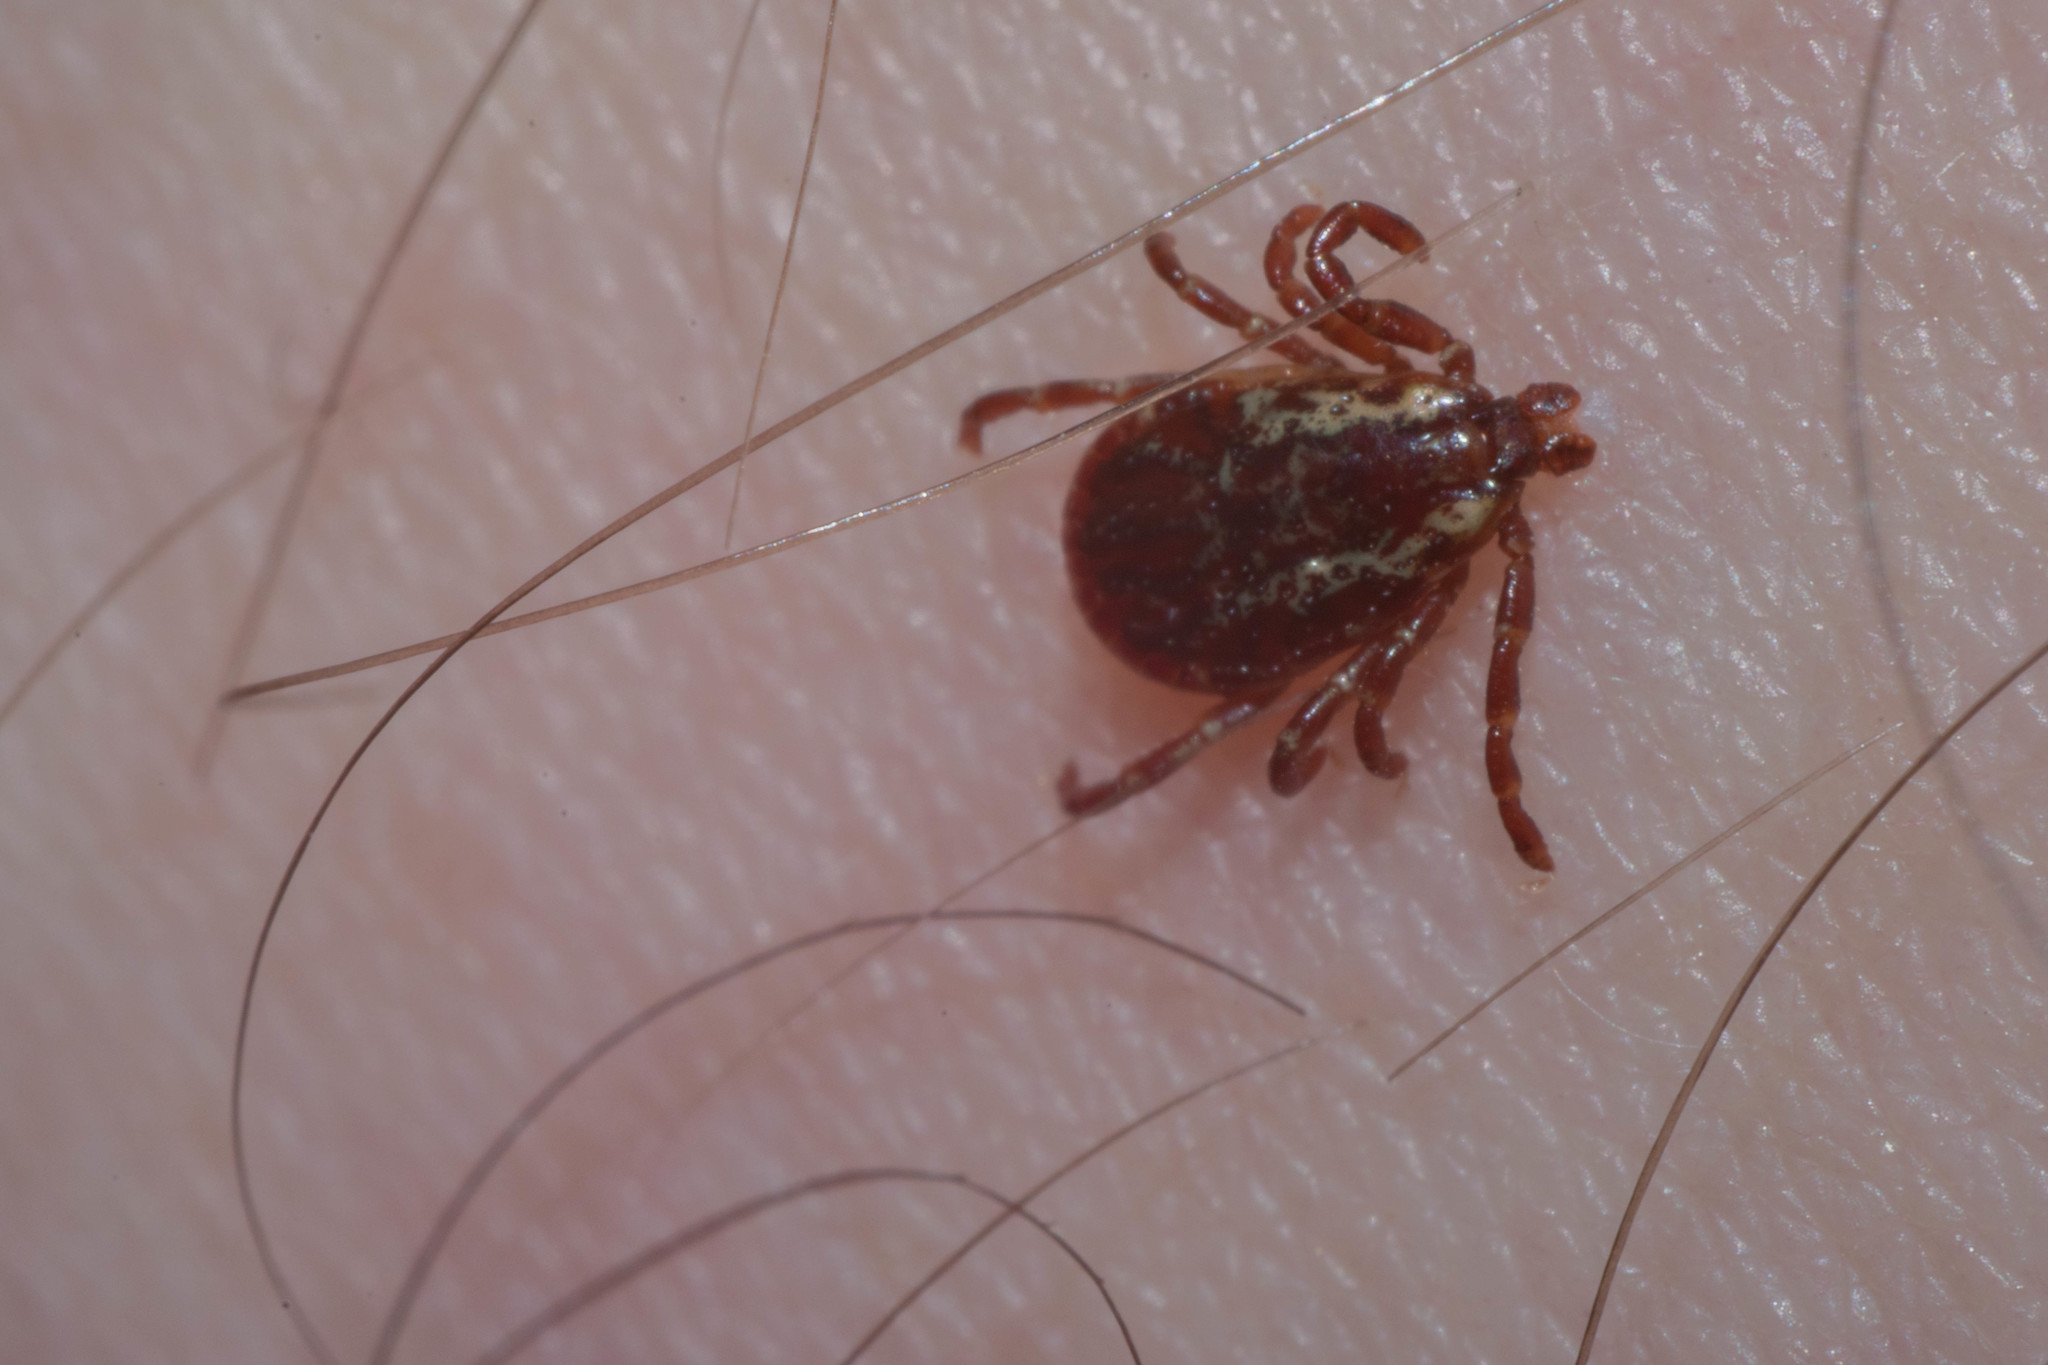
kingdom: Animalia
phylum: Arthropoda
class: Arachnida
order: Ixodida
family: Ixodidae
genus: Dermacentor
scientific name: Dermacentor variabilis
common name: American dog tick
